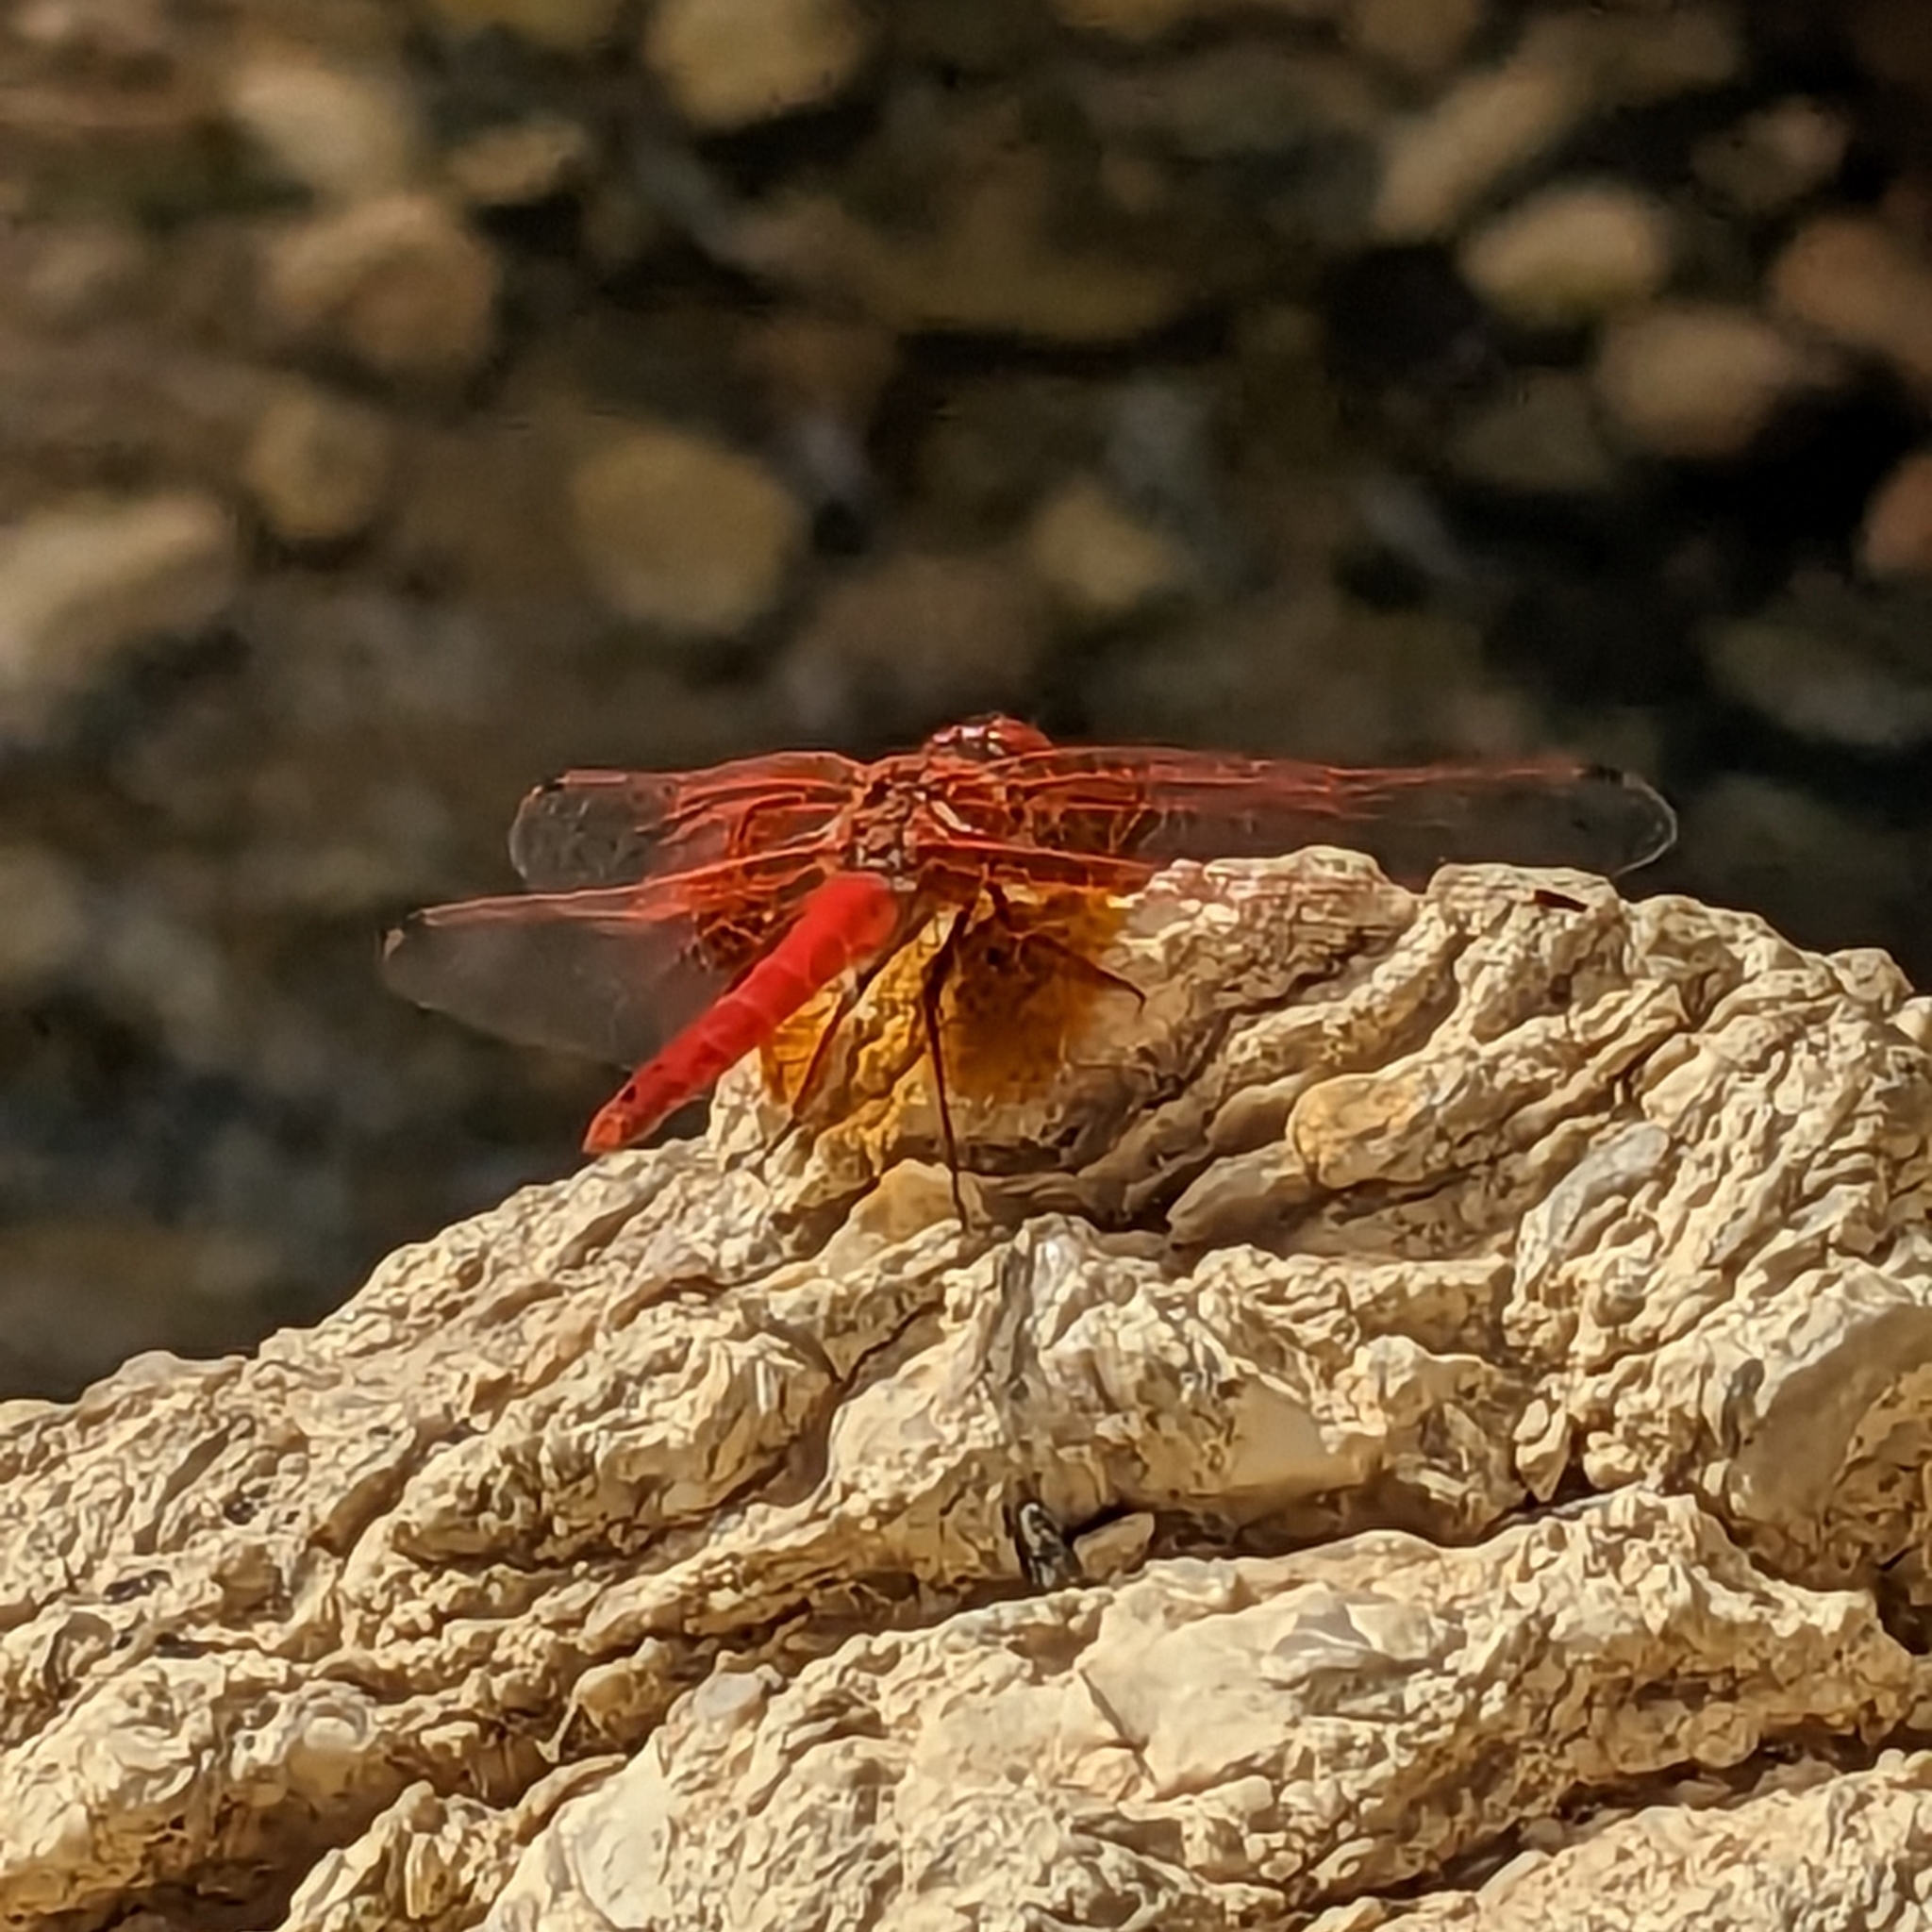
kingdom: Animalia
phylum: Arthropoda
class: Insecta
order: Odonata
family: Libellulidae
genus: Trithemis
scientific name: Trithemis kirbyi
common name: Kirby's dropwing
